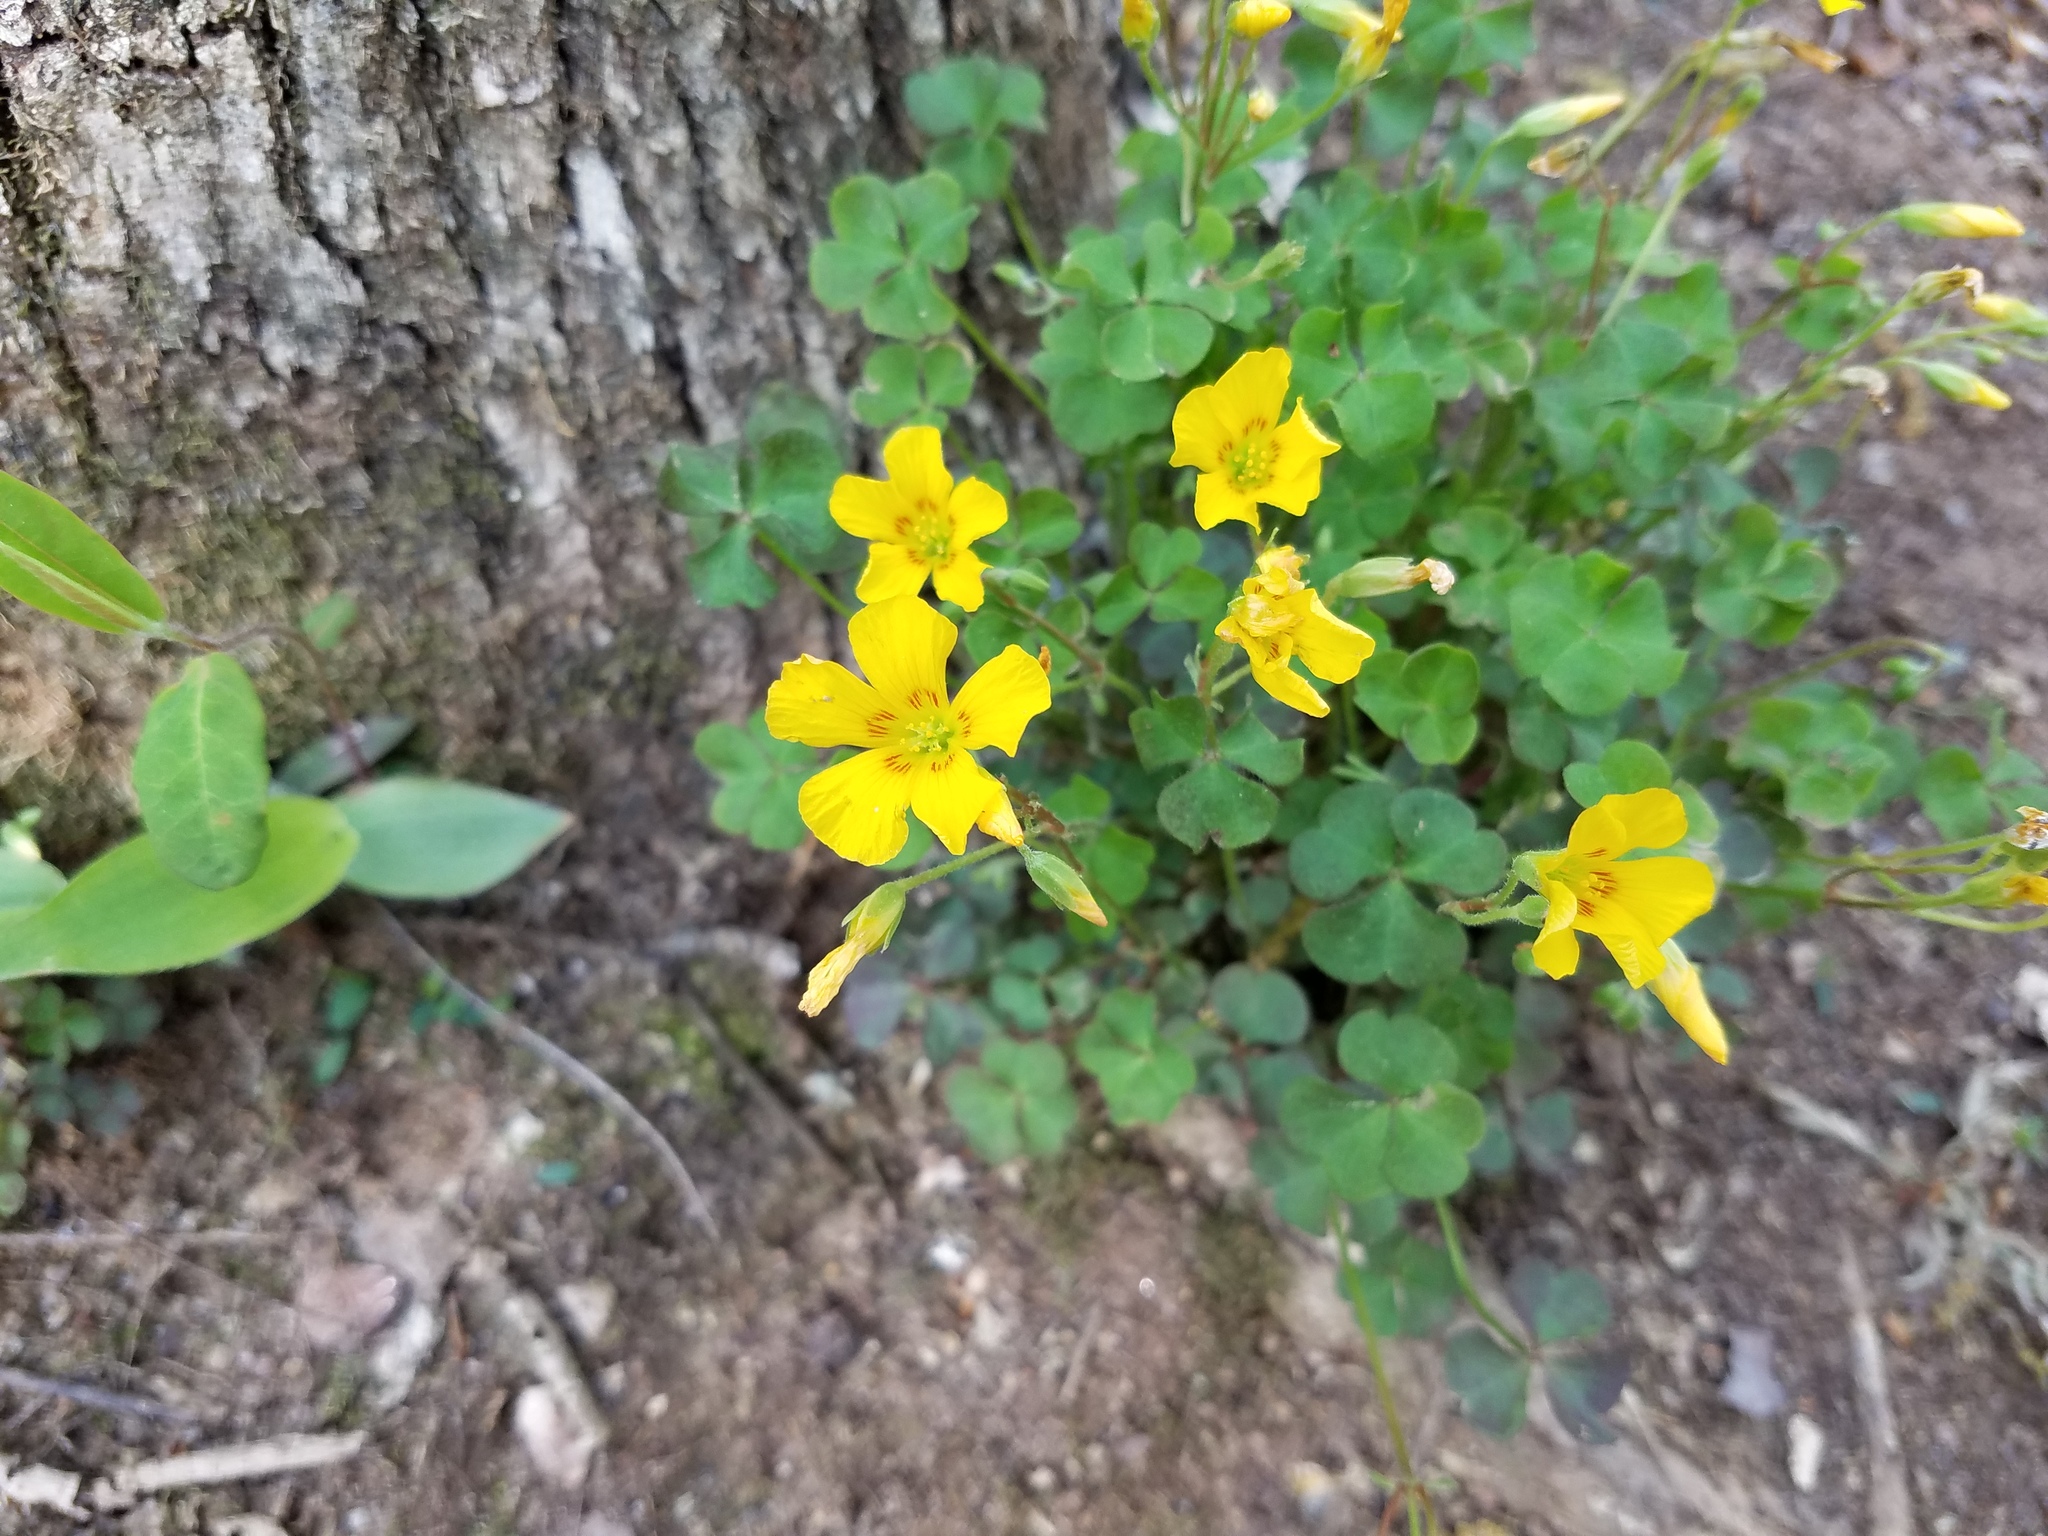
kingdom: Plantae
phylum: Tracheophyta
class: Magnoliopsida
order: Oxalidales
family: Oxalidaceae
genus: Oxalis
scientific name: Oxalis colorea
